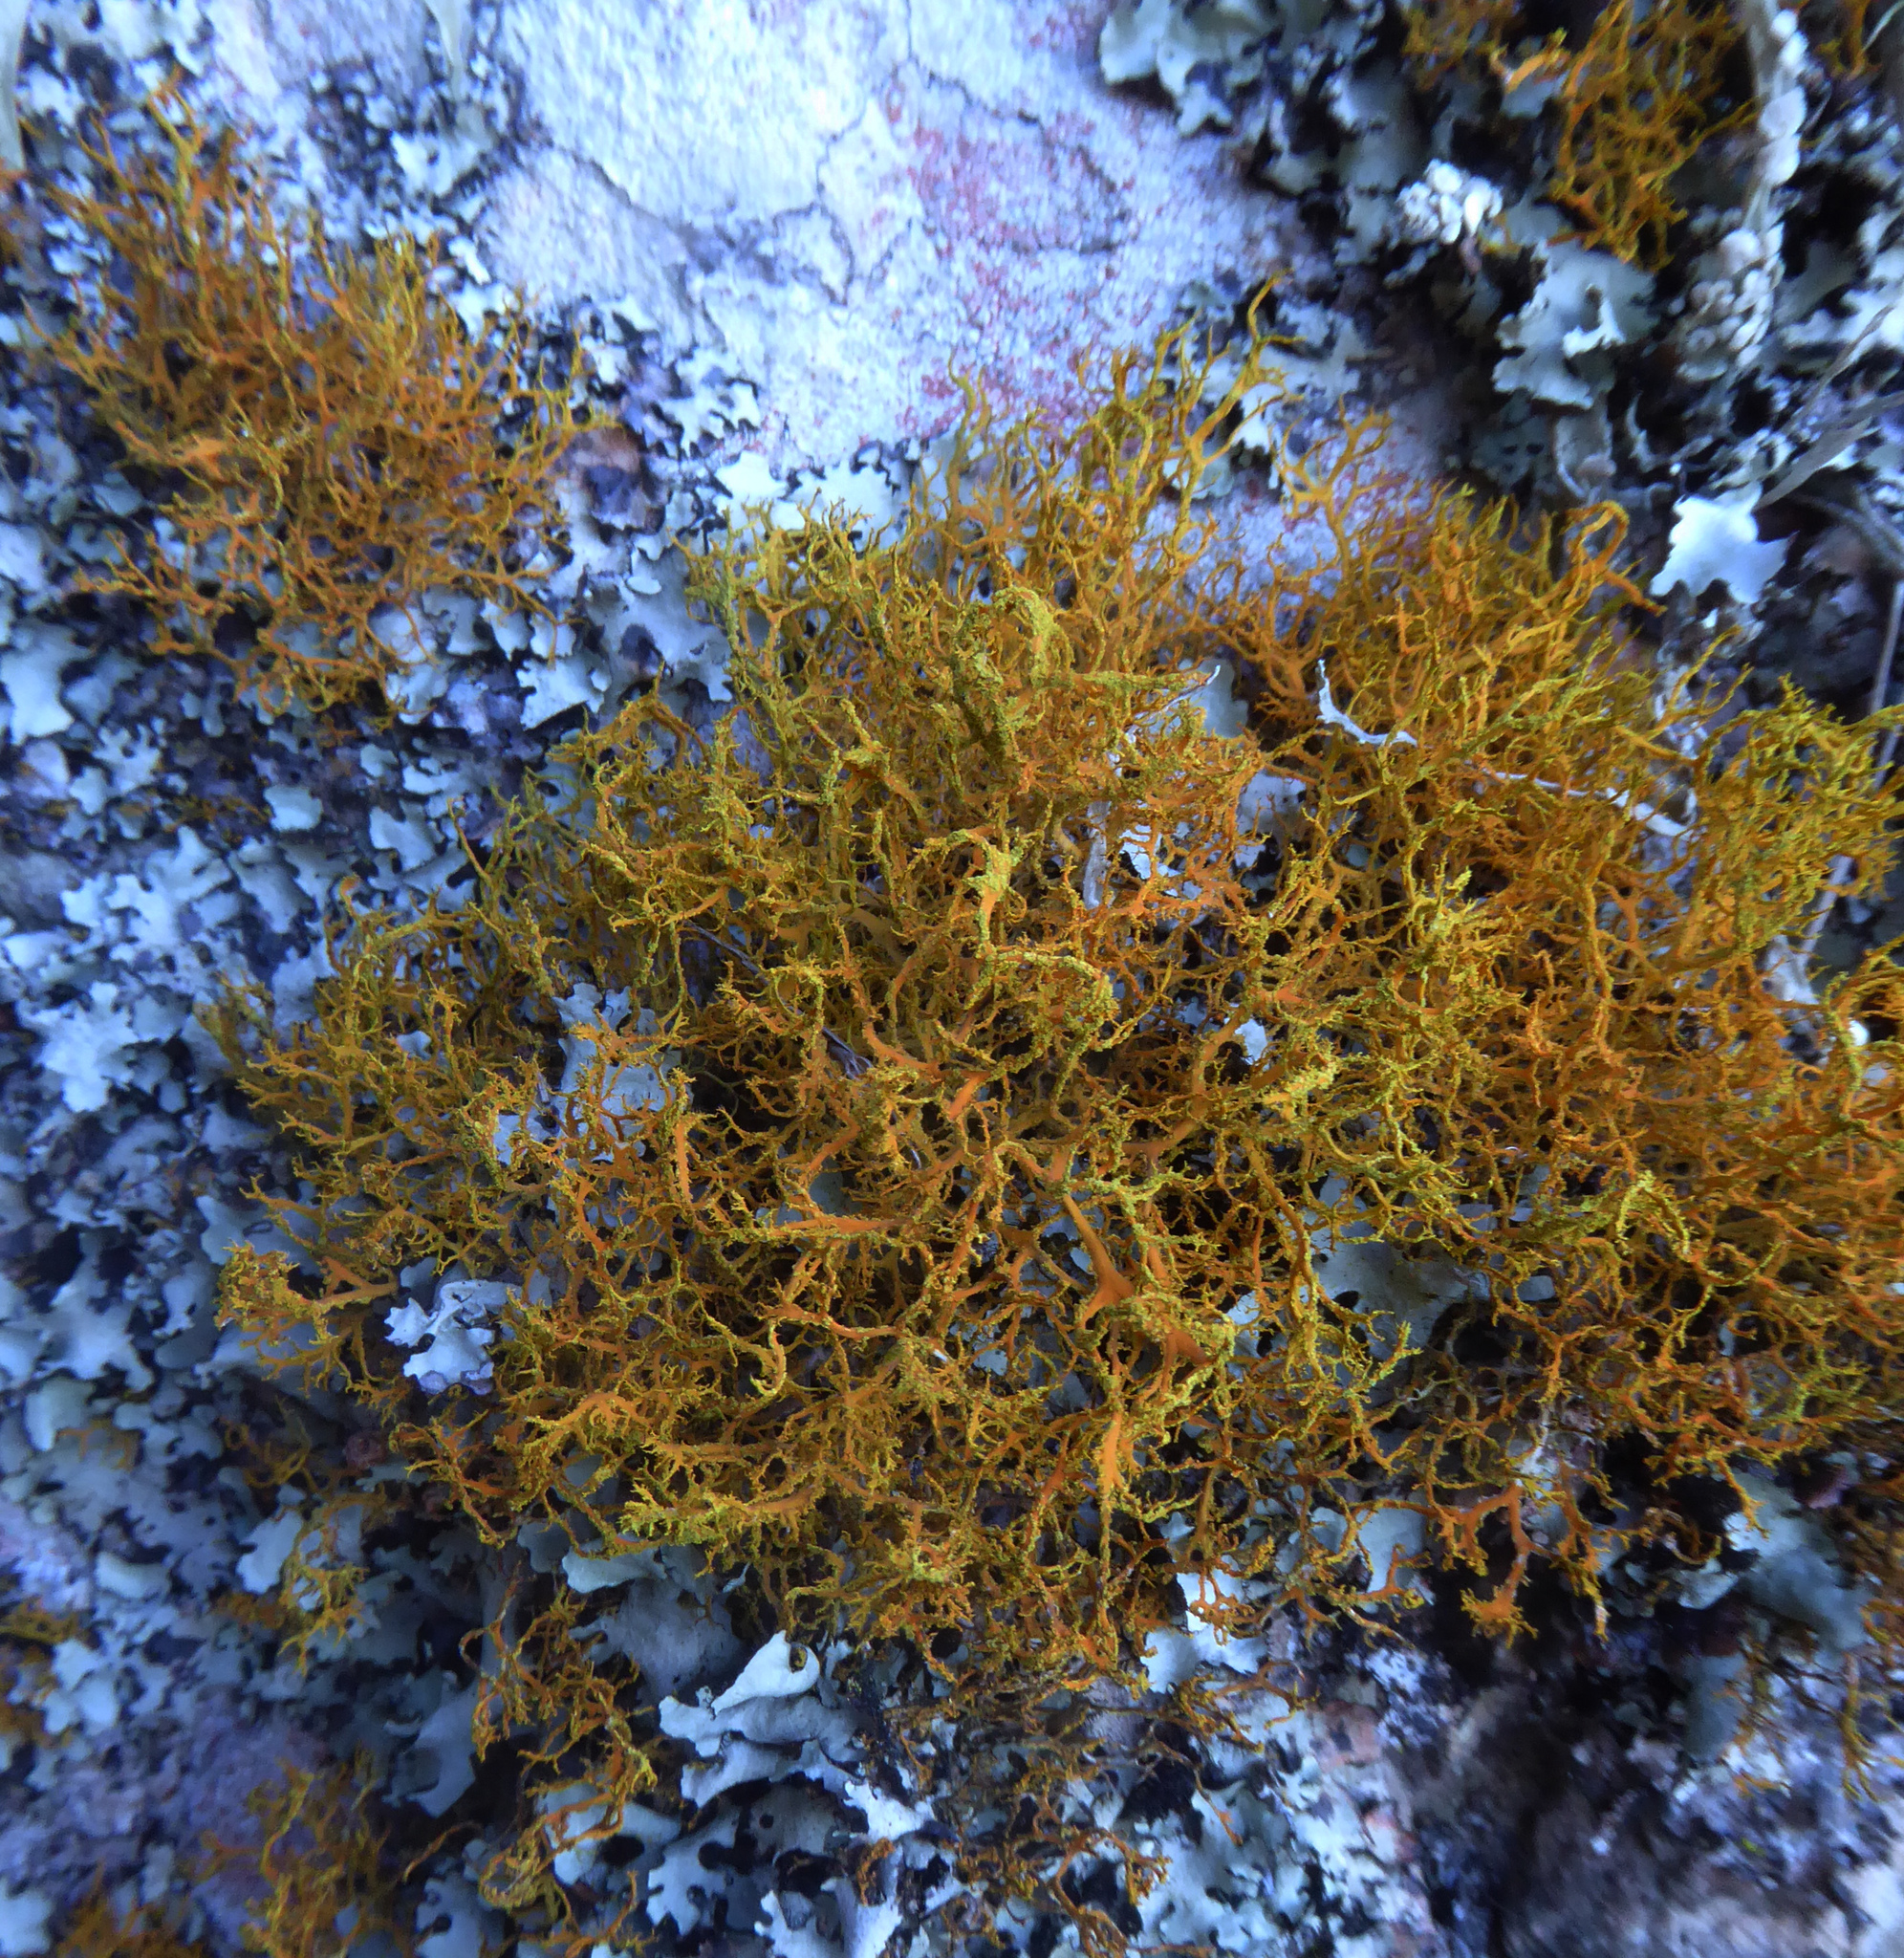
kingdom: Fungi
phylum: Ascomycota
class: Lecanoromycetes
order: Teloschistales
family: Teloschistaceae
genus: Teloschistes
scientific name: Teloschistes flavicans
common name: Golden hair-lichen
